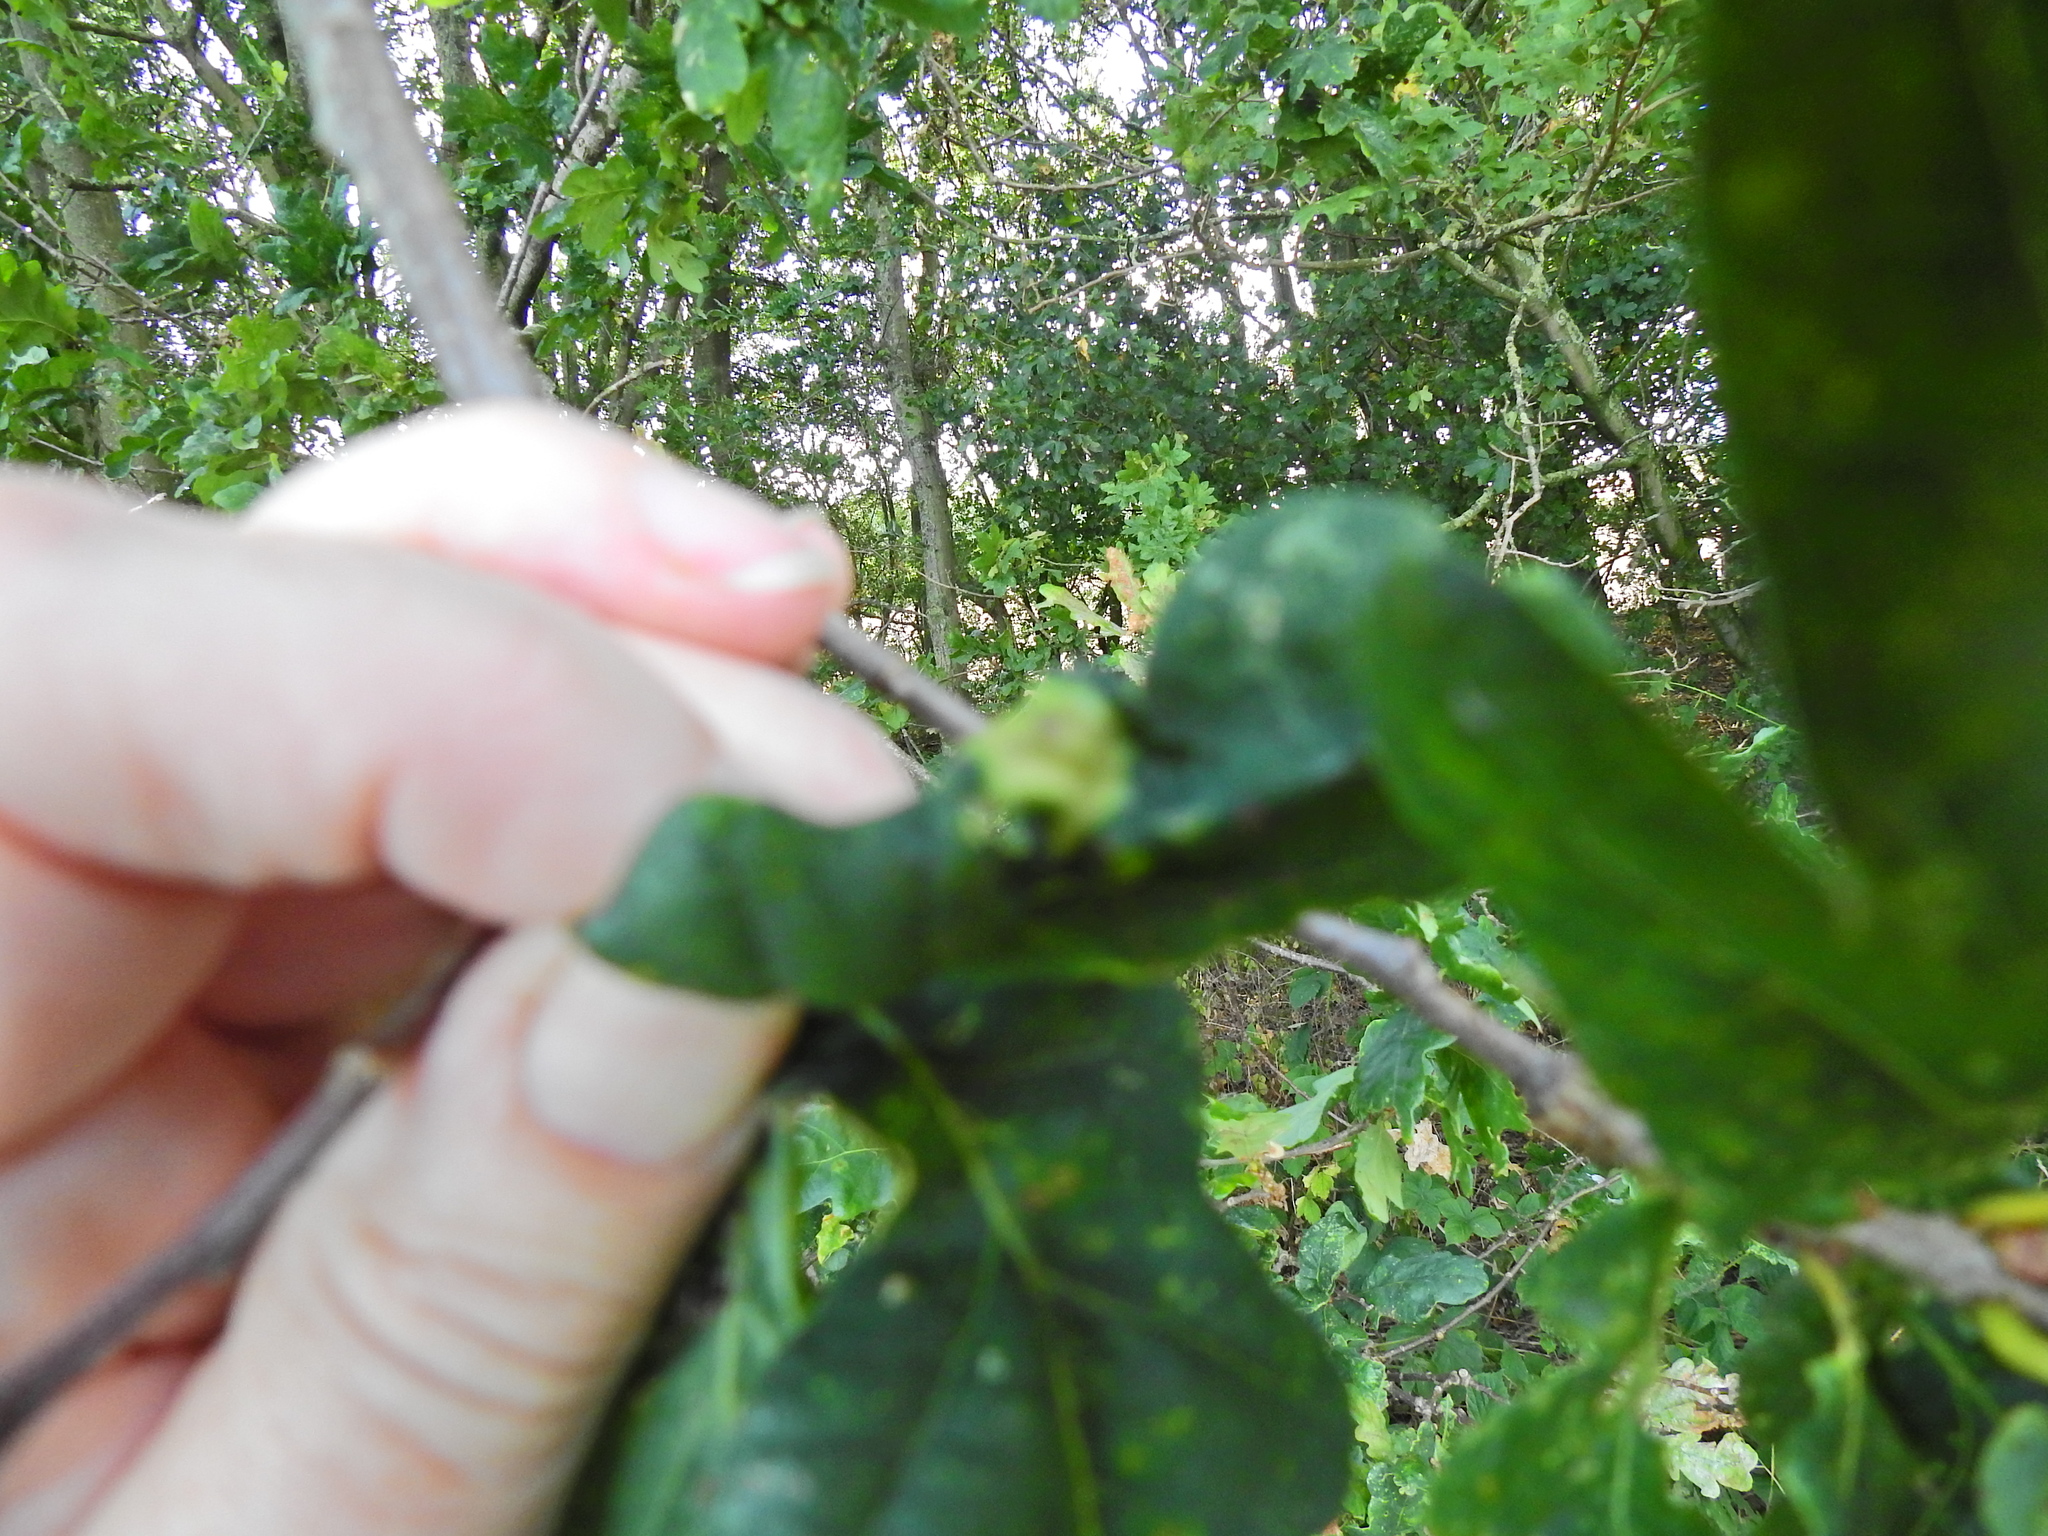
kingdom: Animalia
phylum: Arthropoda
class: Insecta
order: Hymenoptera
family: Cynipidae
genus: Andricus
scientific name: Andricus curvator
